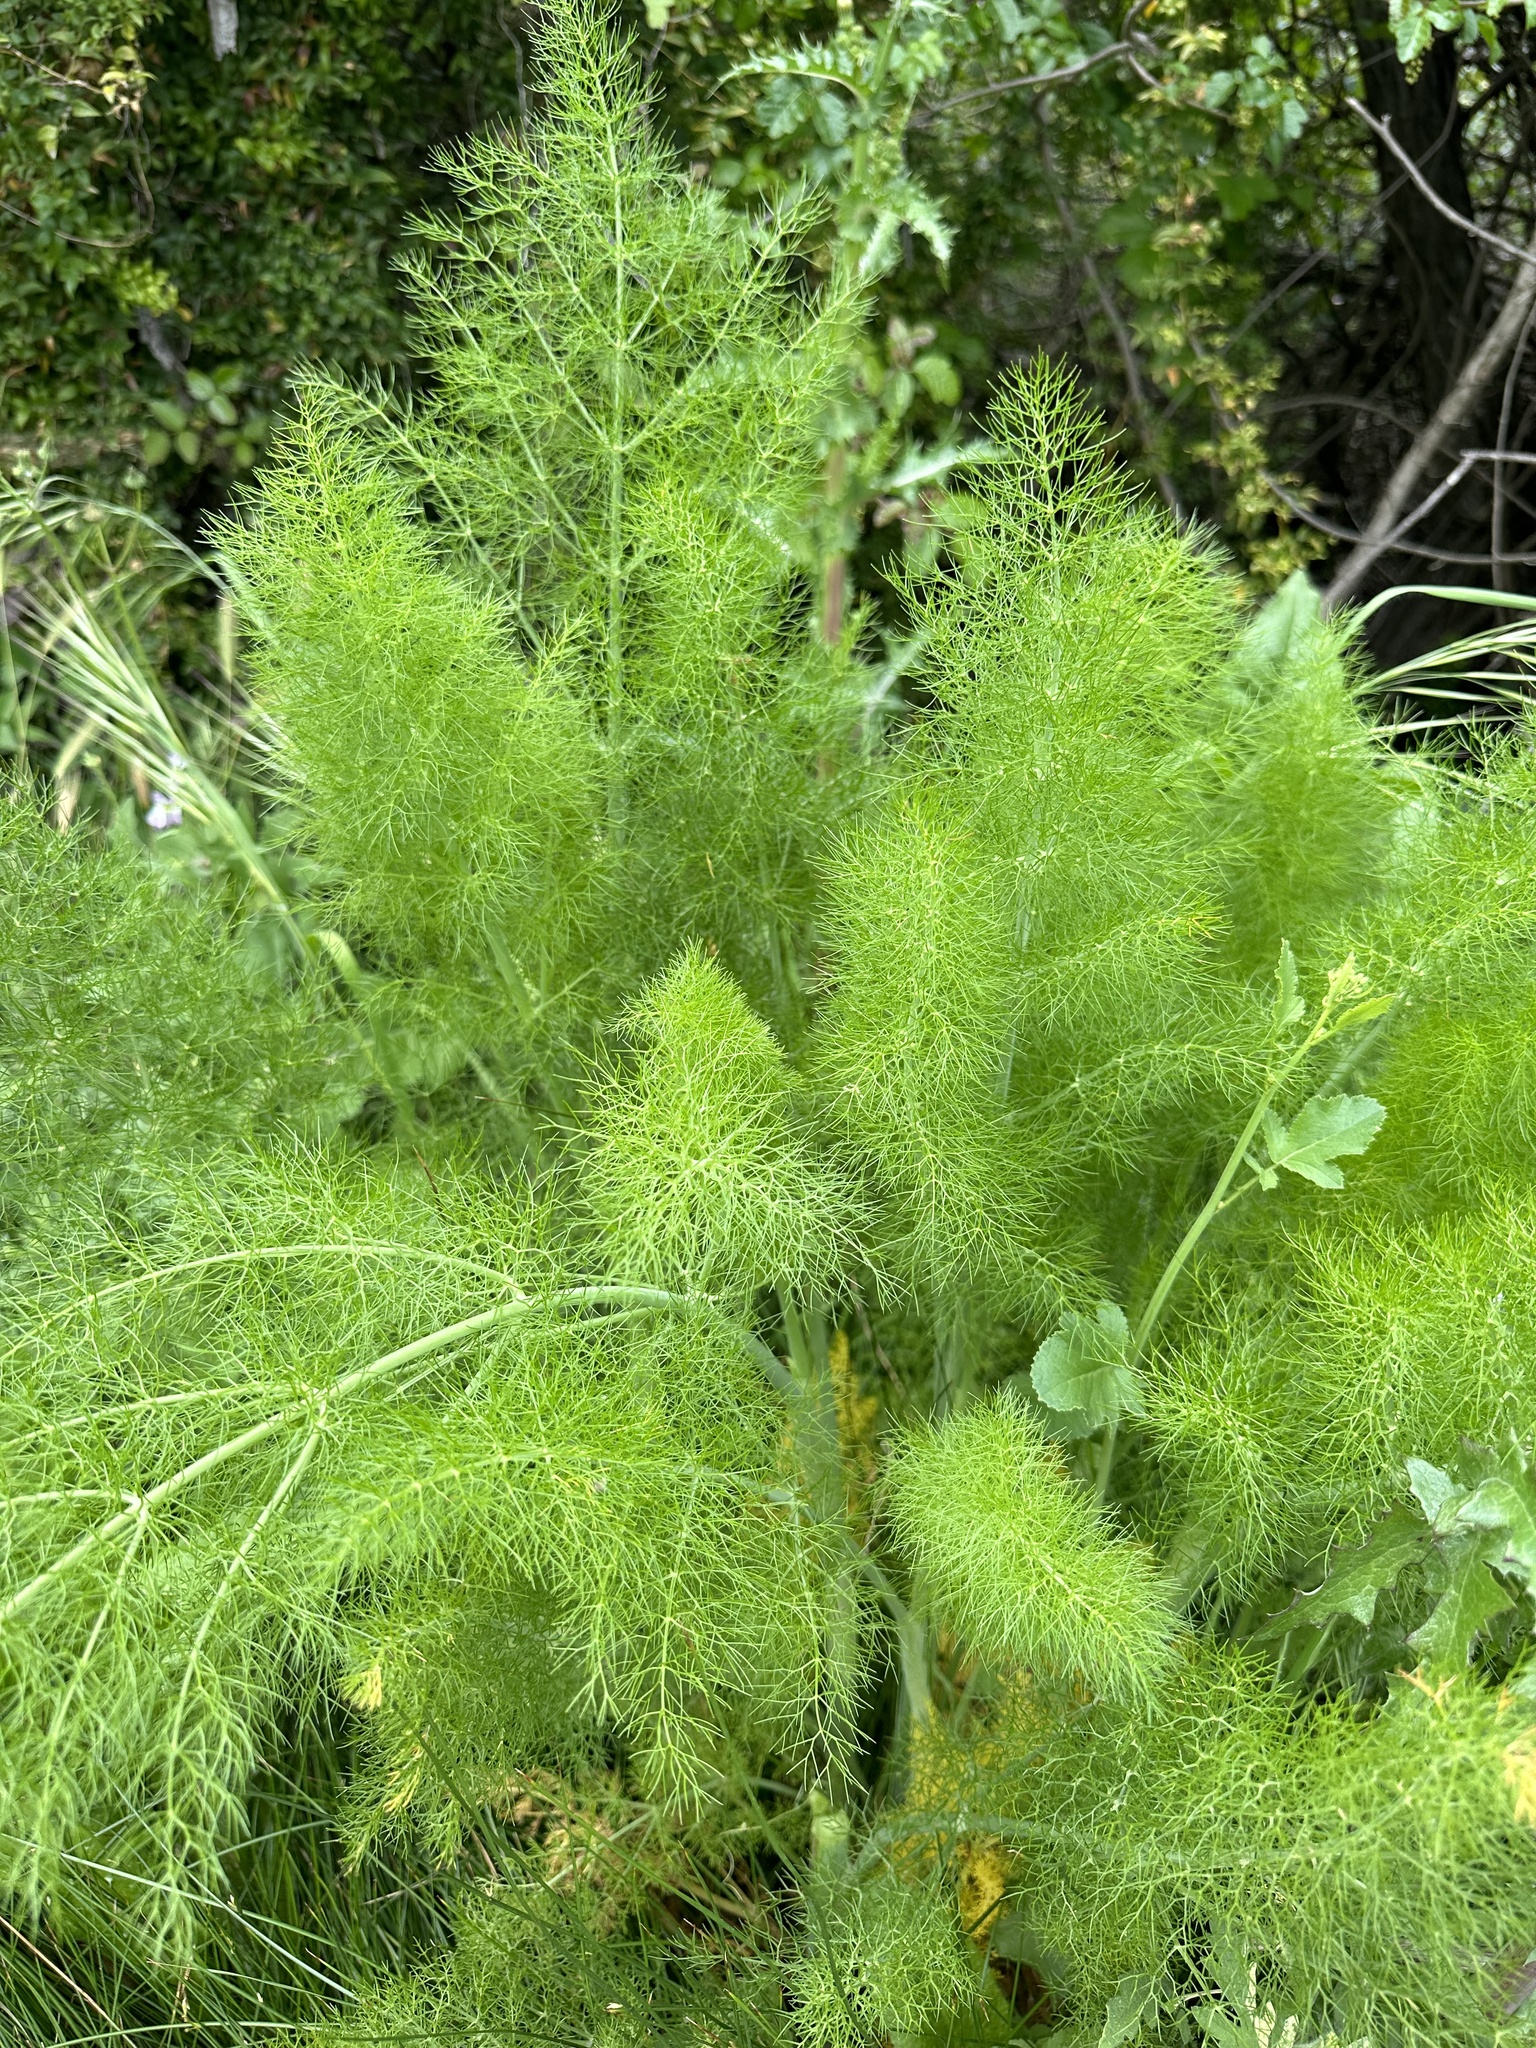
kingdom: Plantae
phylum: Tracheophyta
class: Magnoliopsida
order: Apiales
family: Apiaceae
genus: Foeniculum
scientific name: Foeniculum vulgare
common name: Fennel
